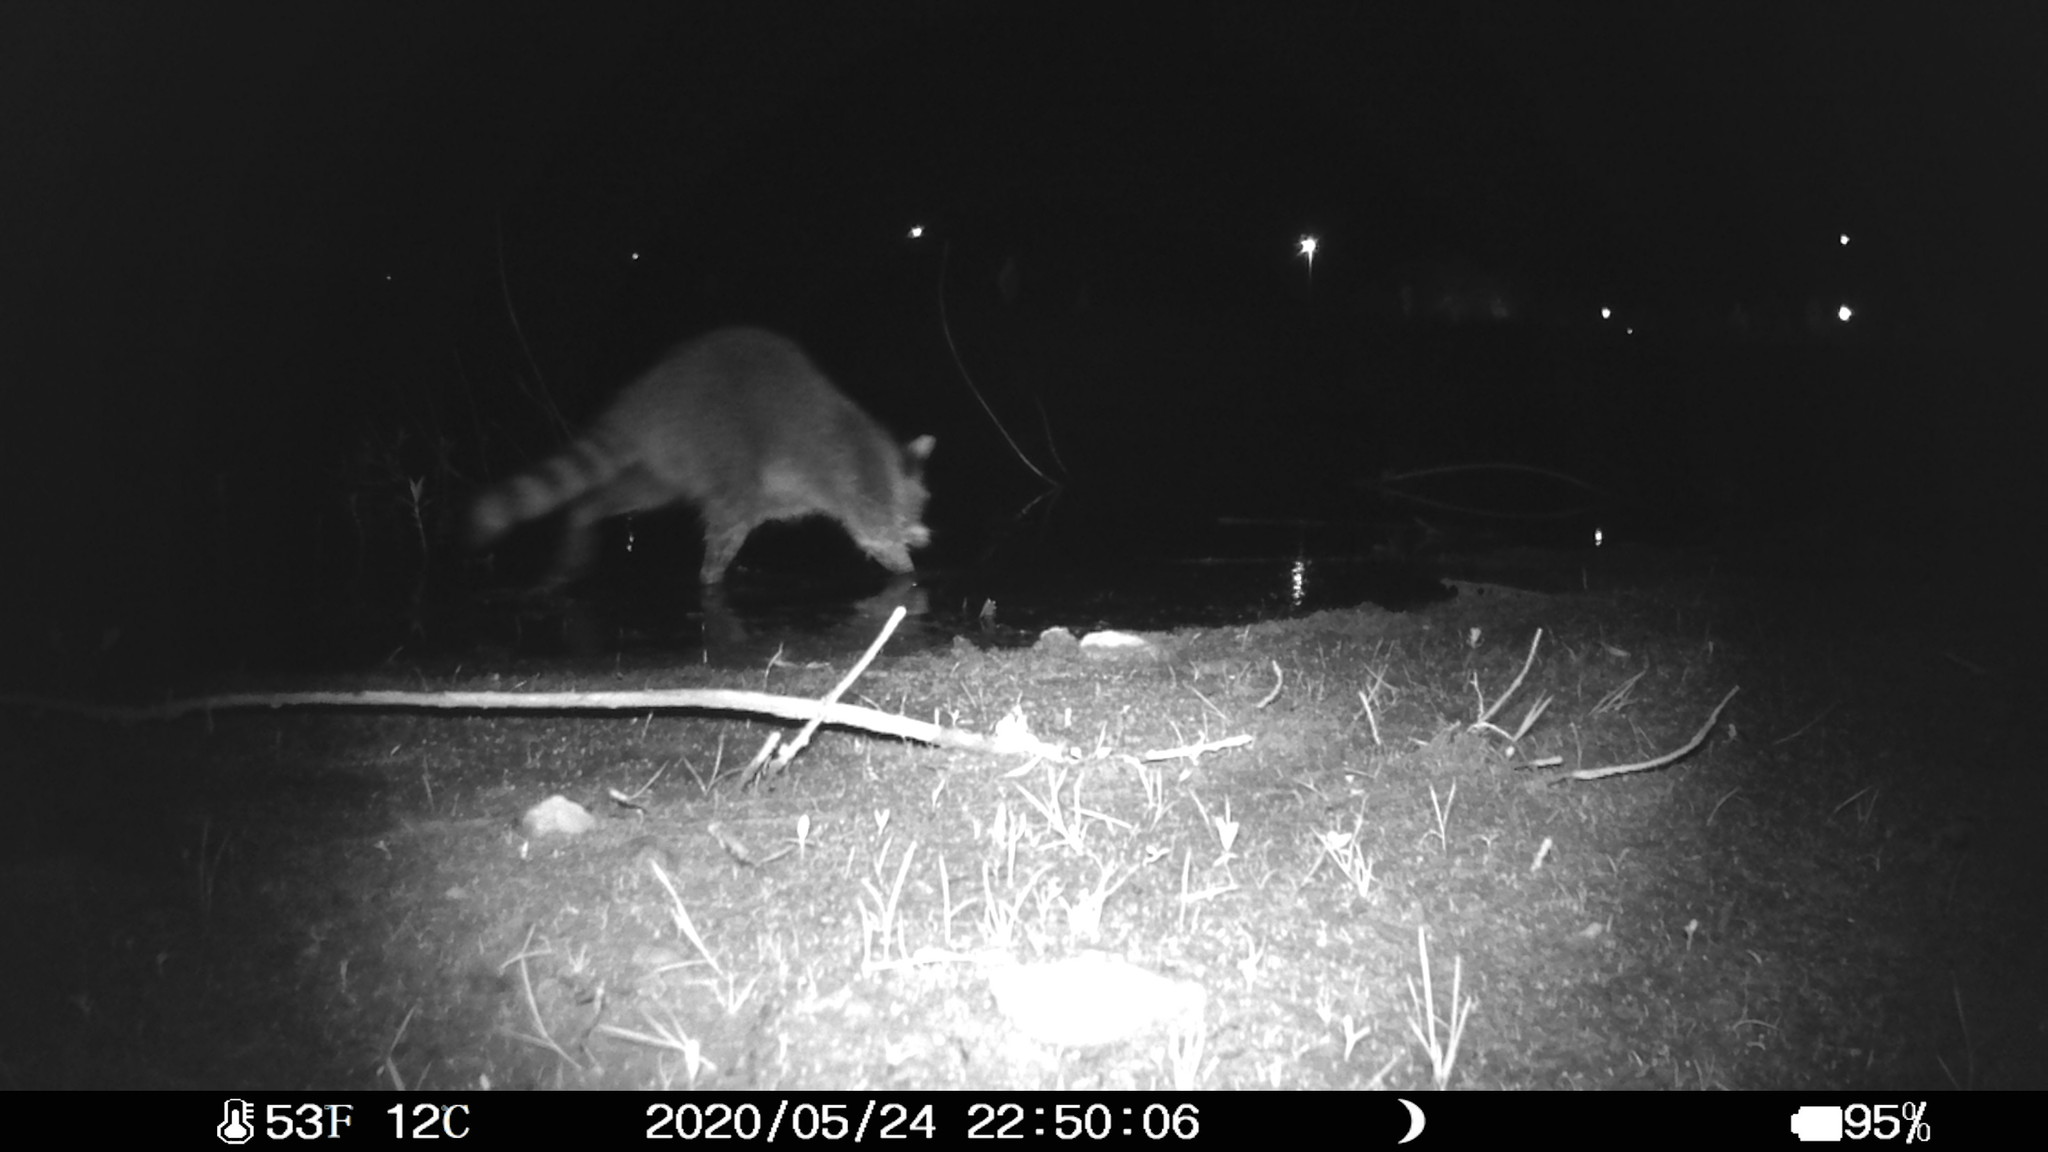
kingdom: Animalia
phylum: Chordata
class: Mammalia
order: Carnivora
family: Procyonidae
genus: Procyon
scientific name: Procyon lotor
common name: Raccoon
